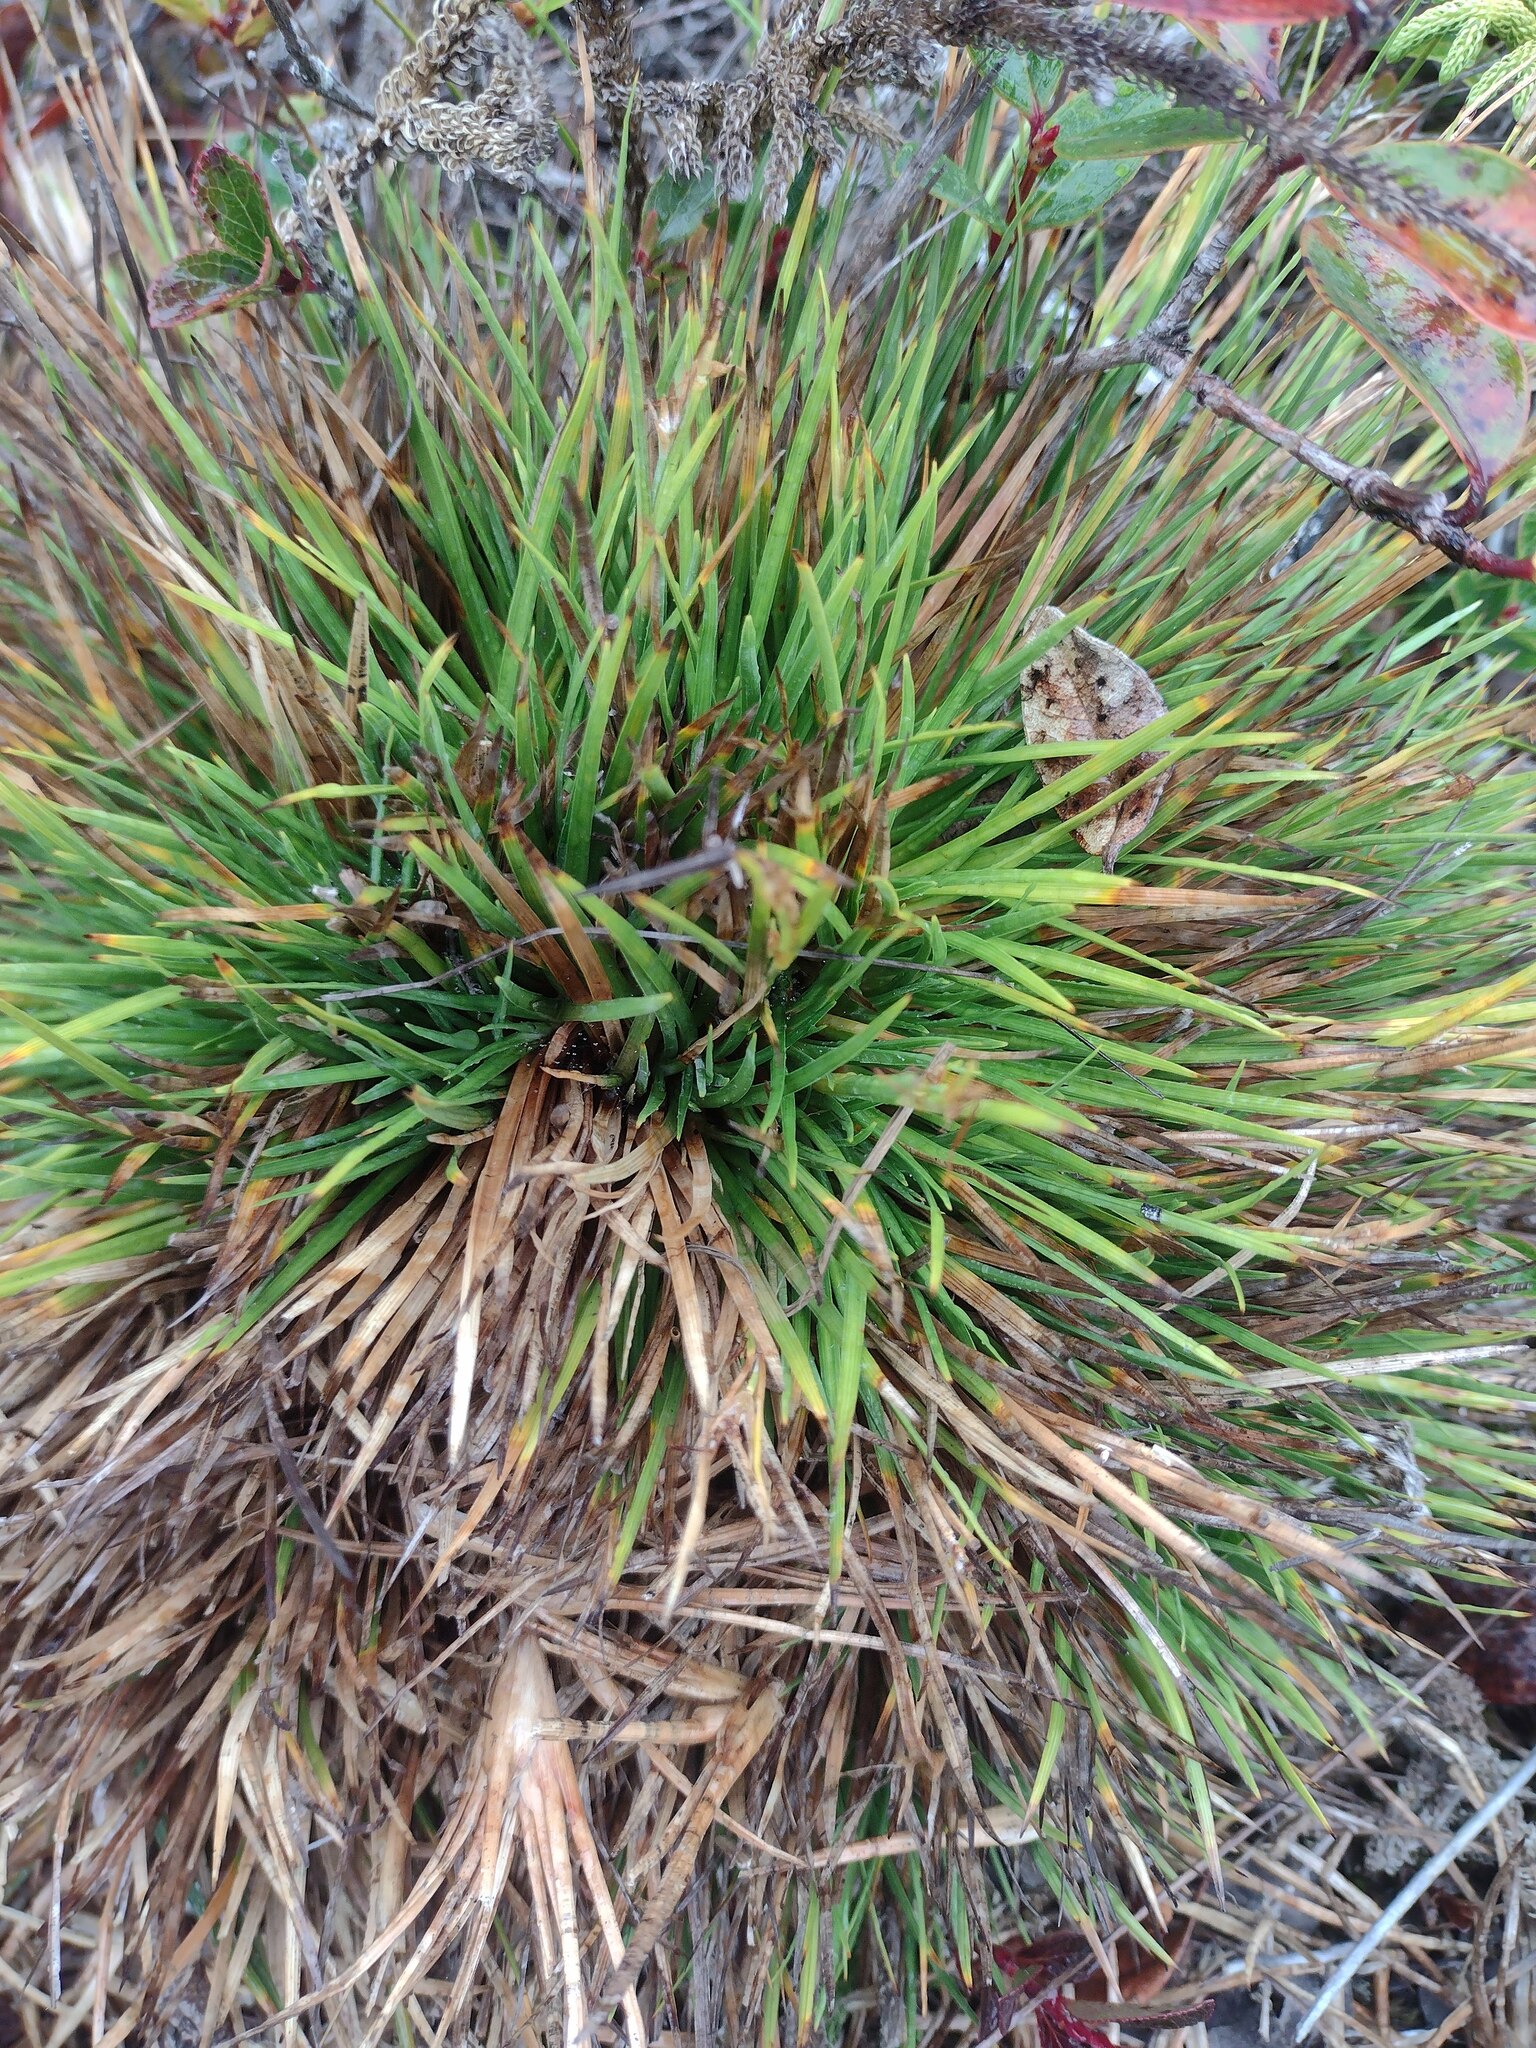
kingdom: Plantae
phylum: Tracheophyta
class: Liliopsida
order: Poales
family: Cyperaceae
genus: Oreobolus
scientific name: Oreobolus furcatus
